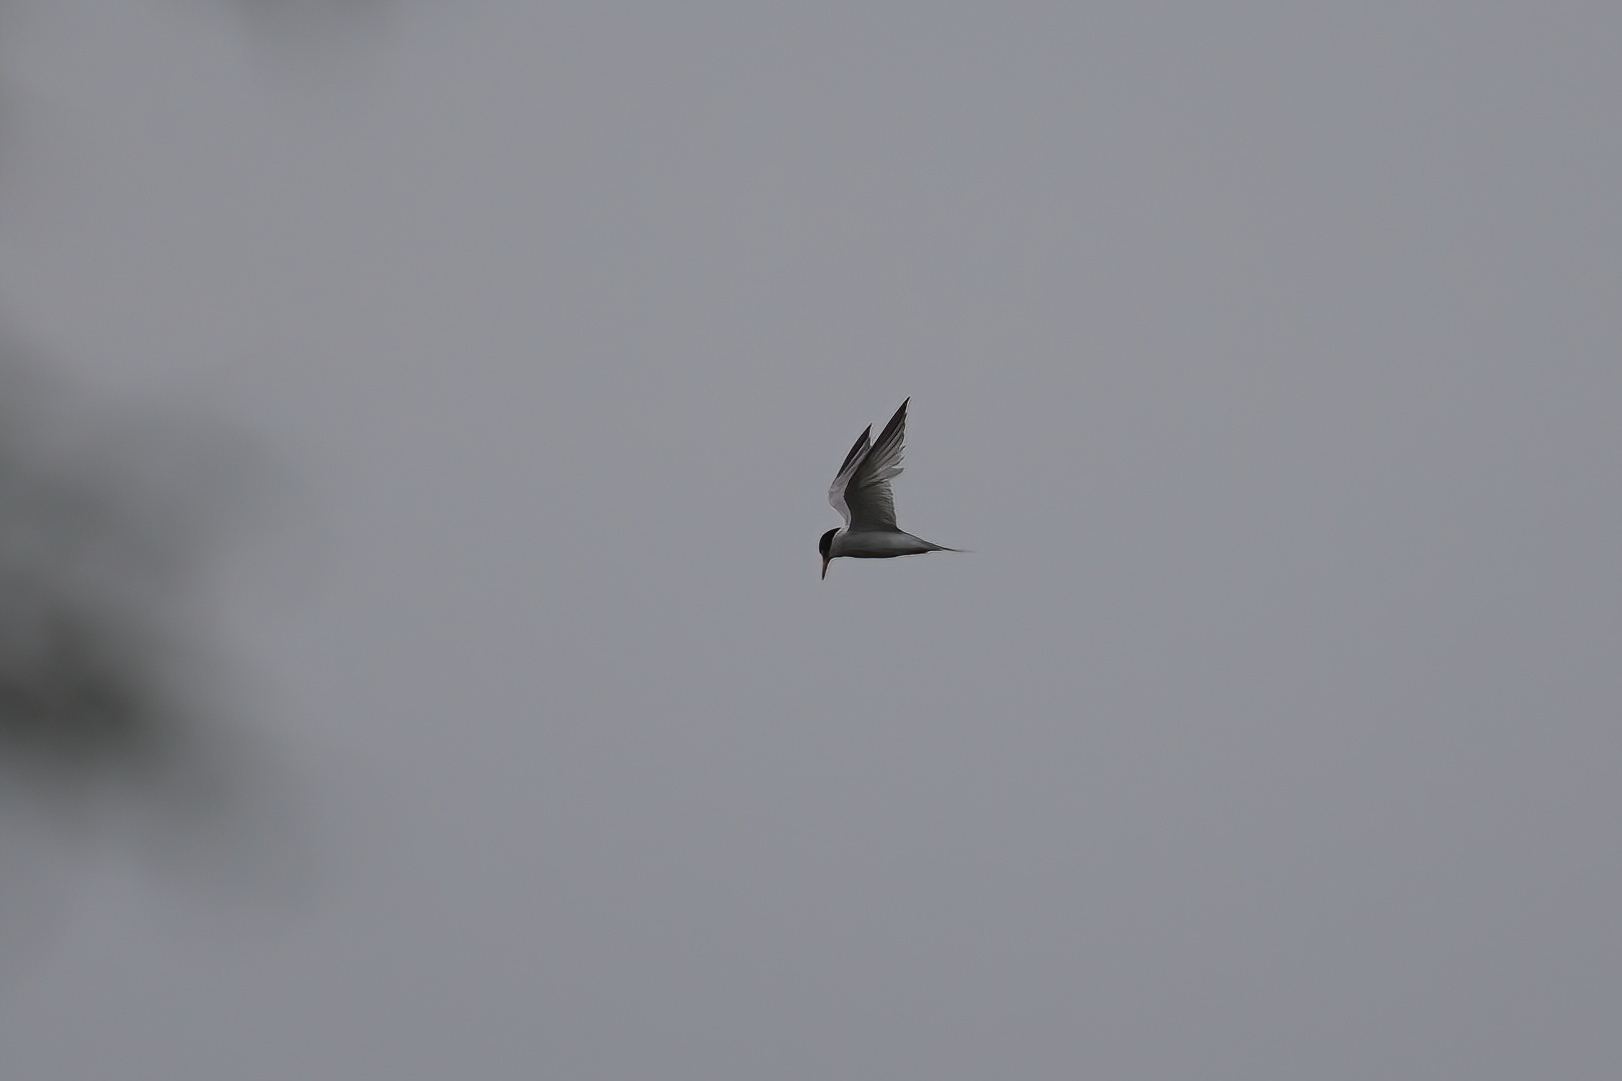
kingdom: Animalia
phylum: Chordata
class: Aves
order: Charadriiformes
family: Laridae
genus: Sternula
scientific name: Sternula antillarum
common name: Least tern
